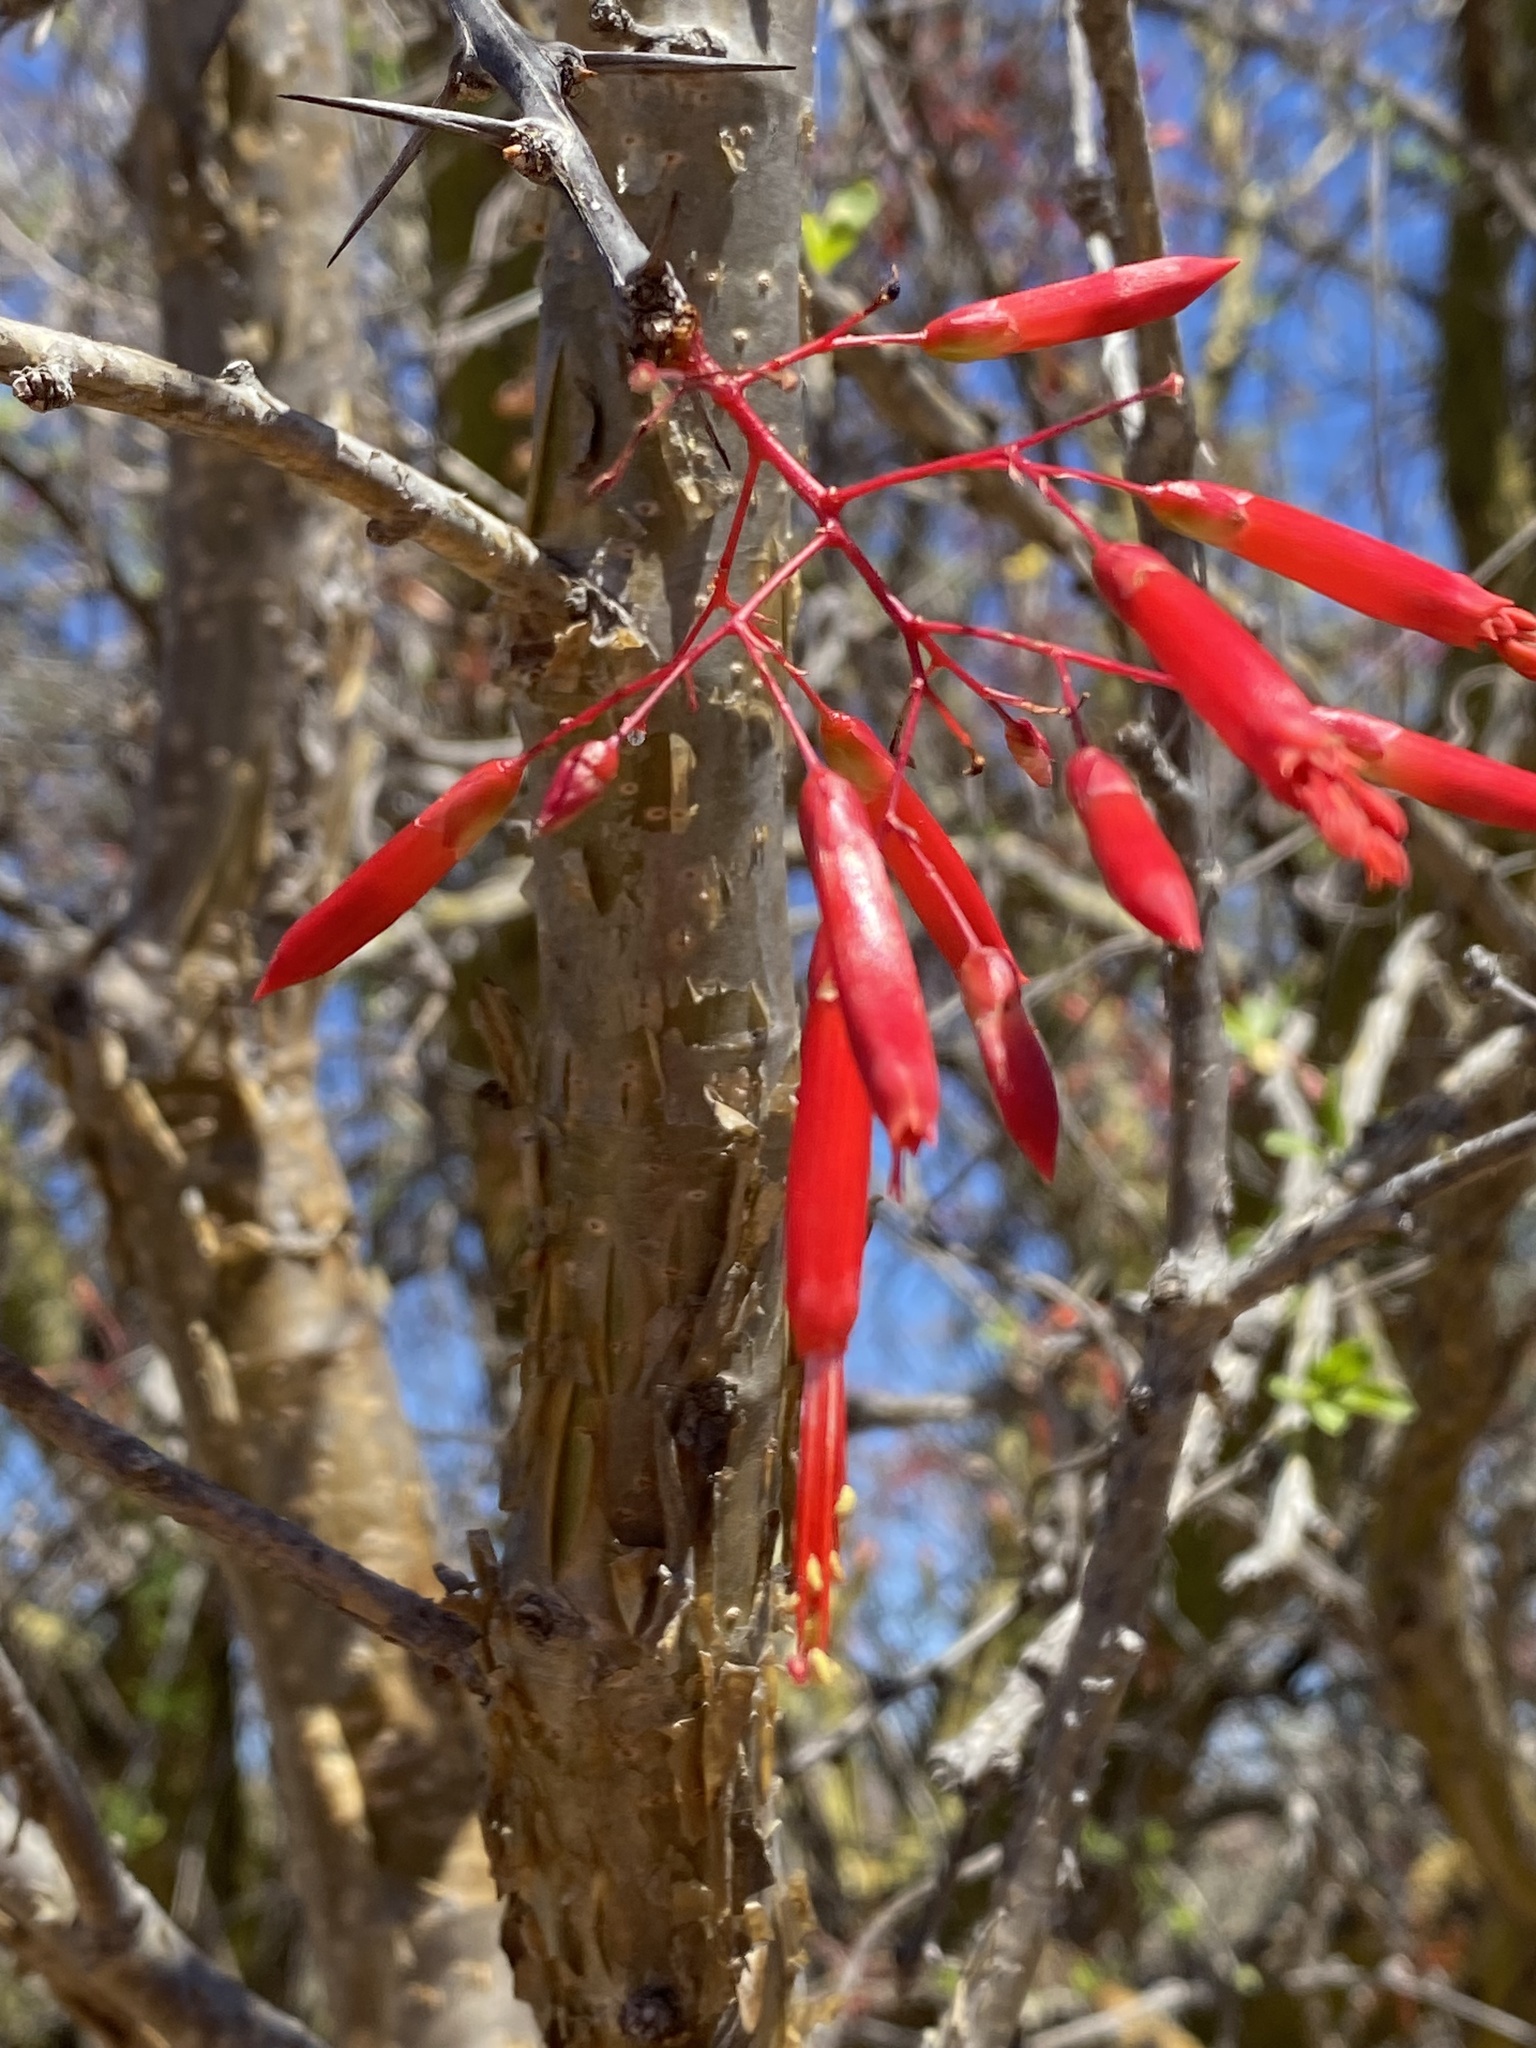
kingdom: Plantae
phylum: Tracheophyta
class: Magnoliopsida
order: Ericales
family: Fouquieriaceae
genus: Fouquieria
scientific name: Fouquieria macdougalii
